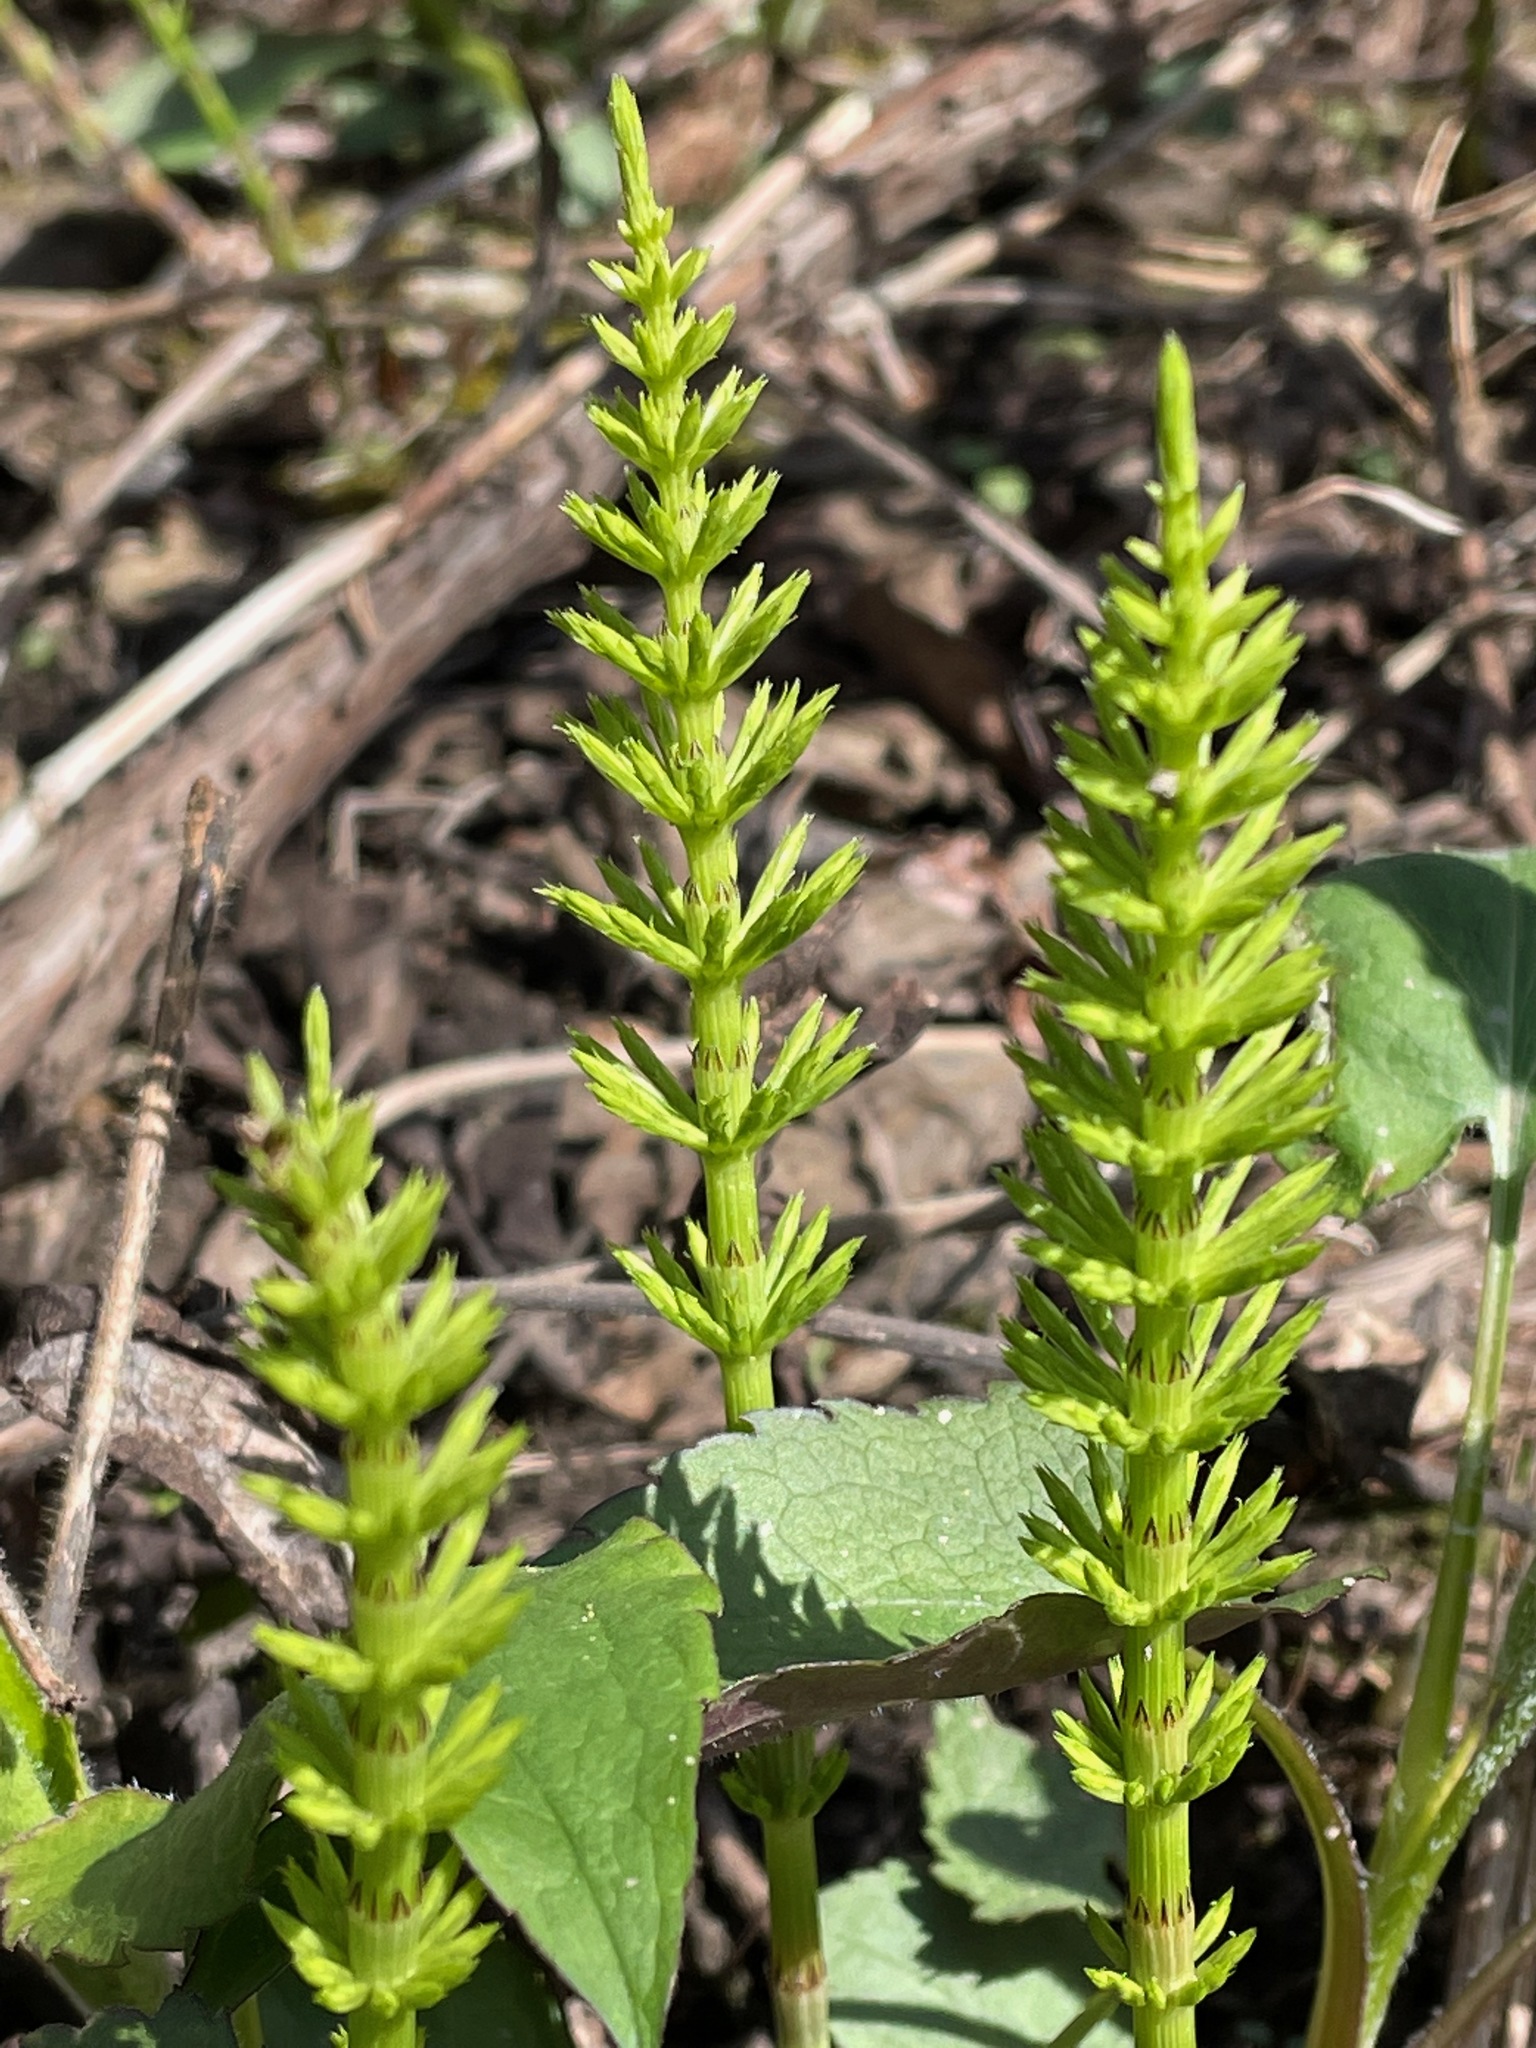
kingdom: Plantae
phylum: Tracheophyta
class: Polypodiopsida
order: Equisetales
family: Equisetaceae
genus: Equisetum
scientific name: Equisetum arvense
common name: Field horsetail
